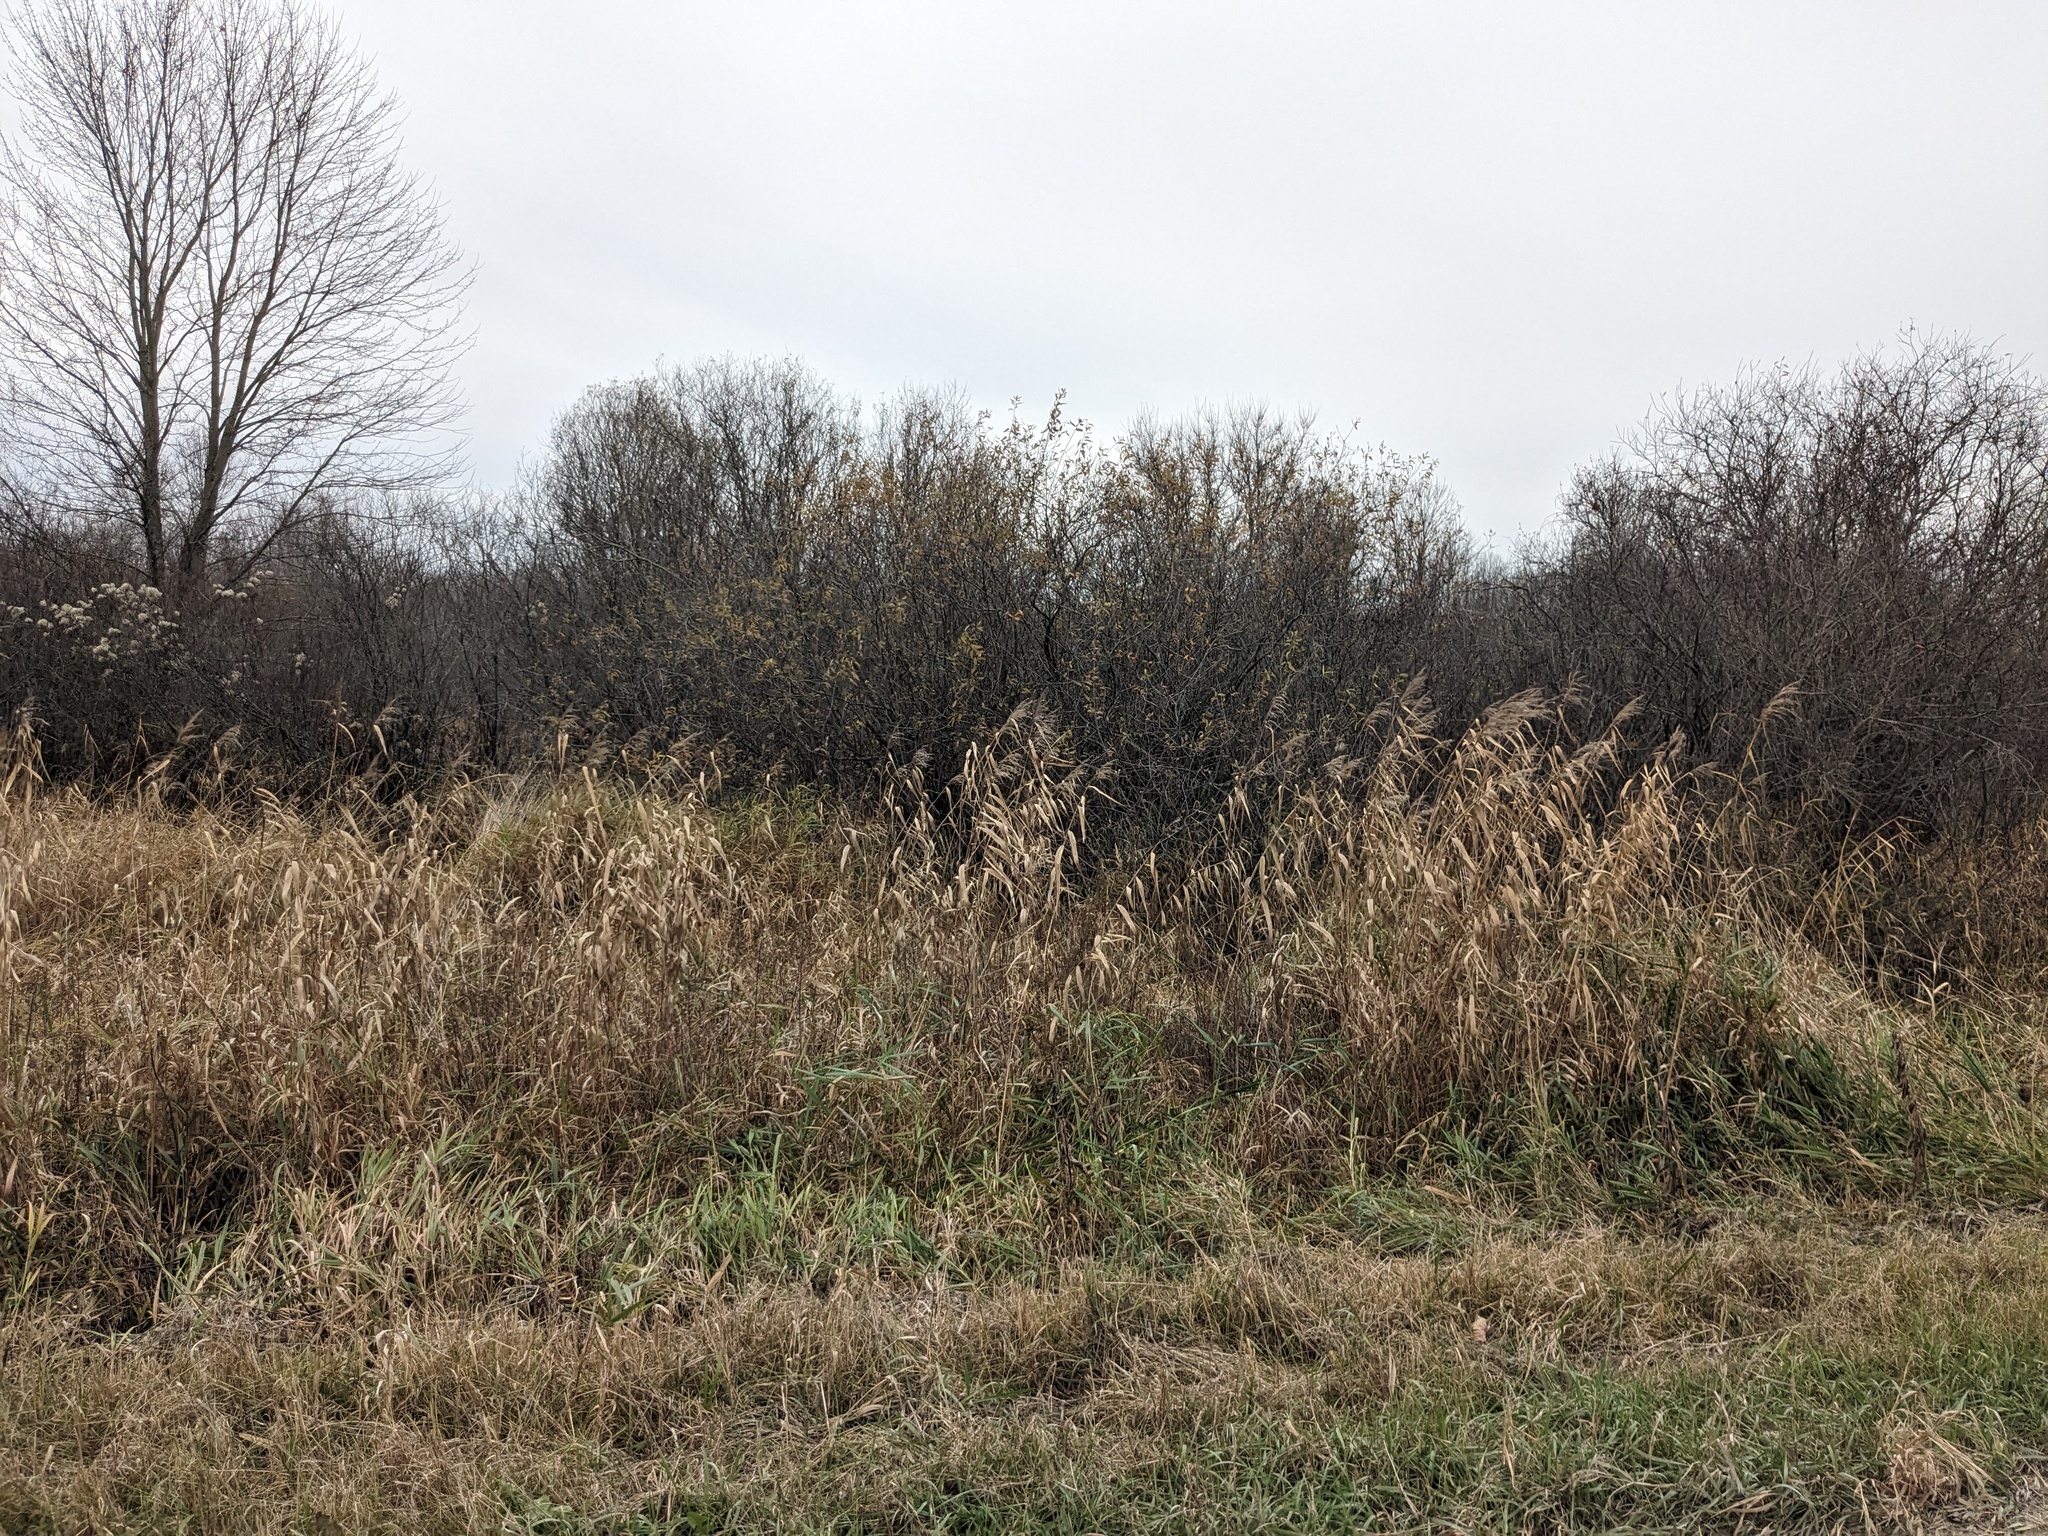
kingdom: Plantae
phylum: Tracheophyta
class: Liliopsida
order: Poales
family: Poaceae
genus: Phragmites
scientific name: Phragmites australis
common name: Common reed
